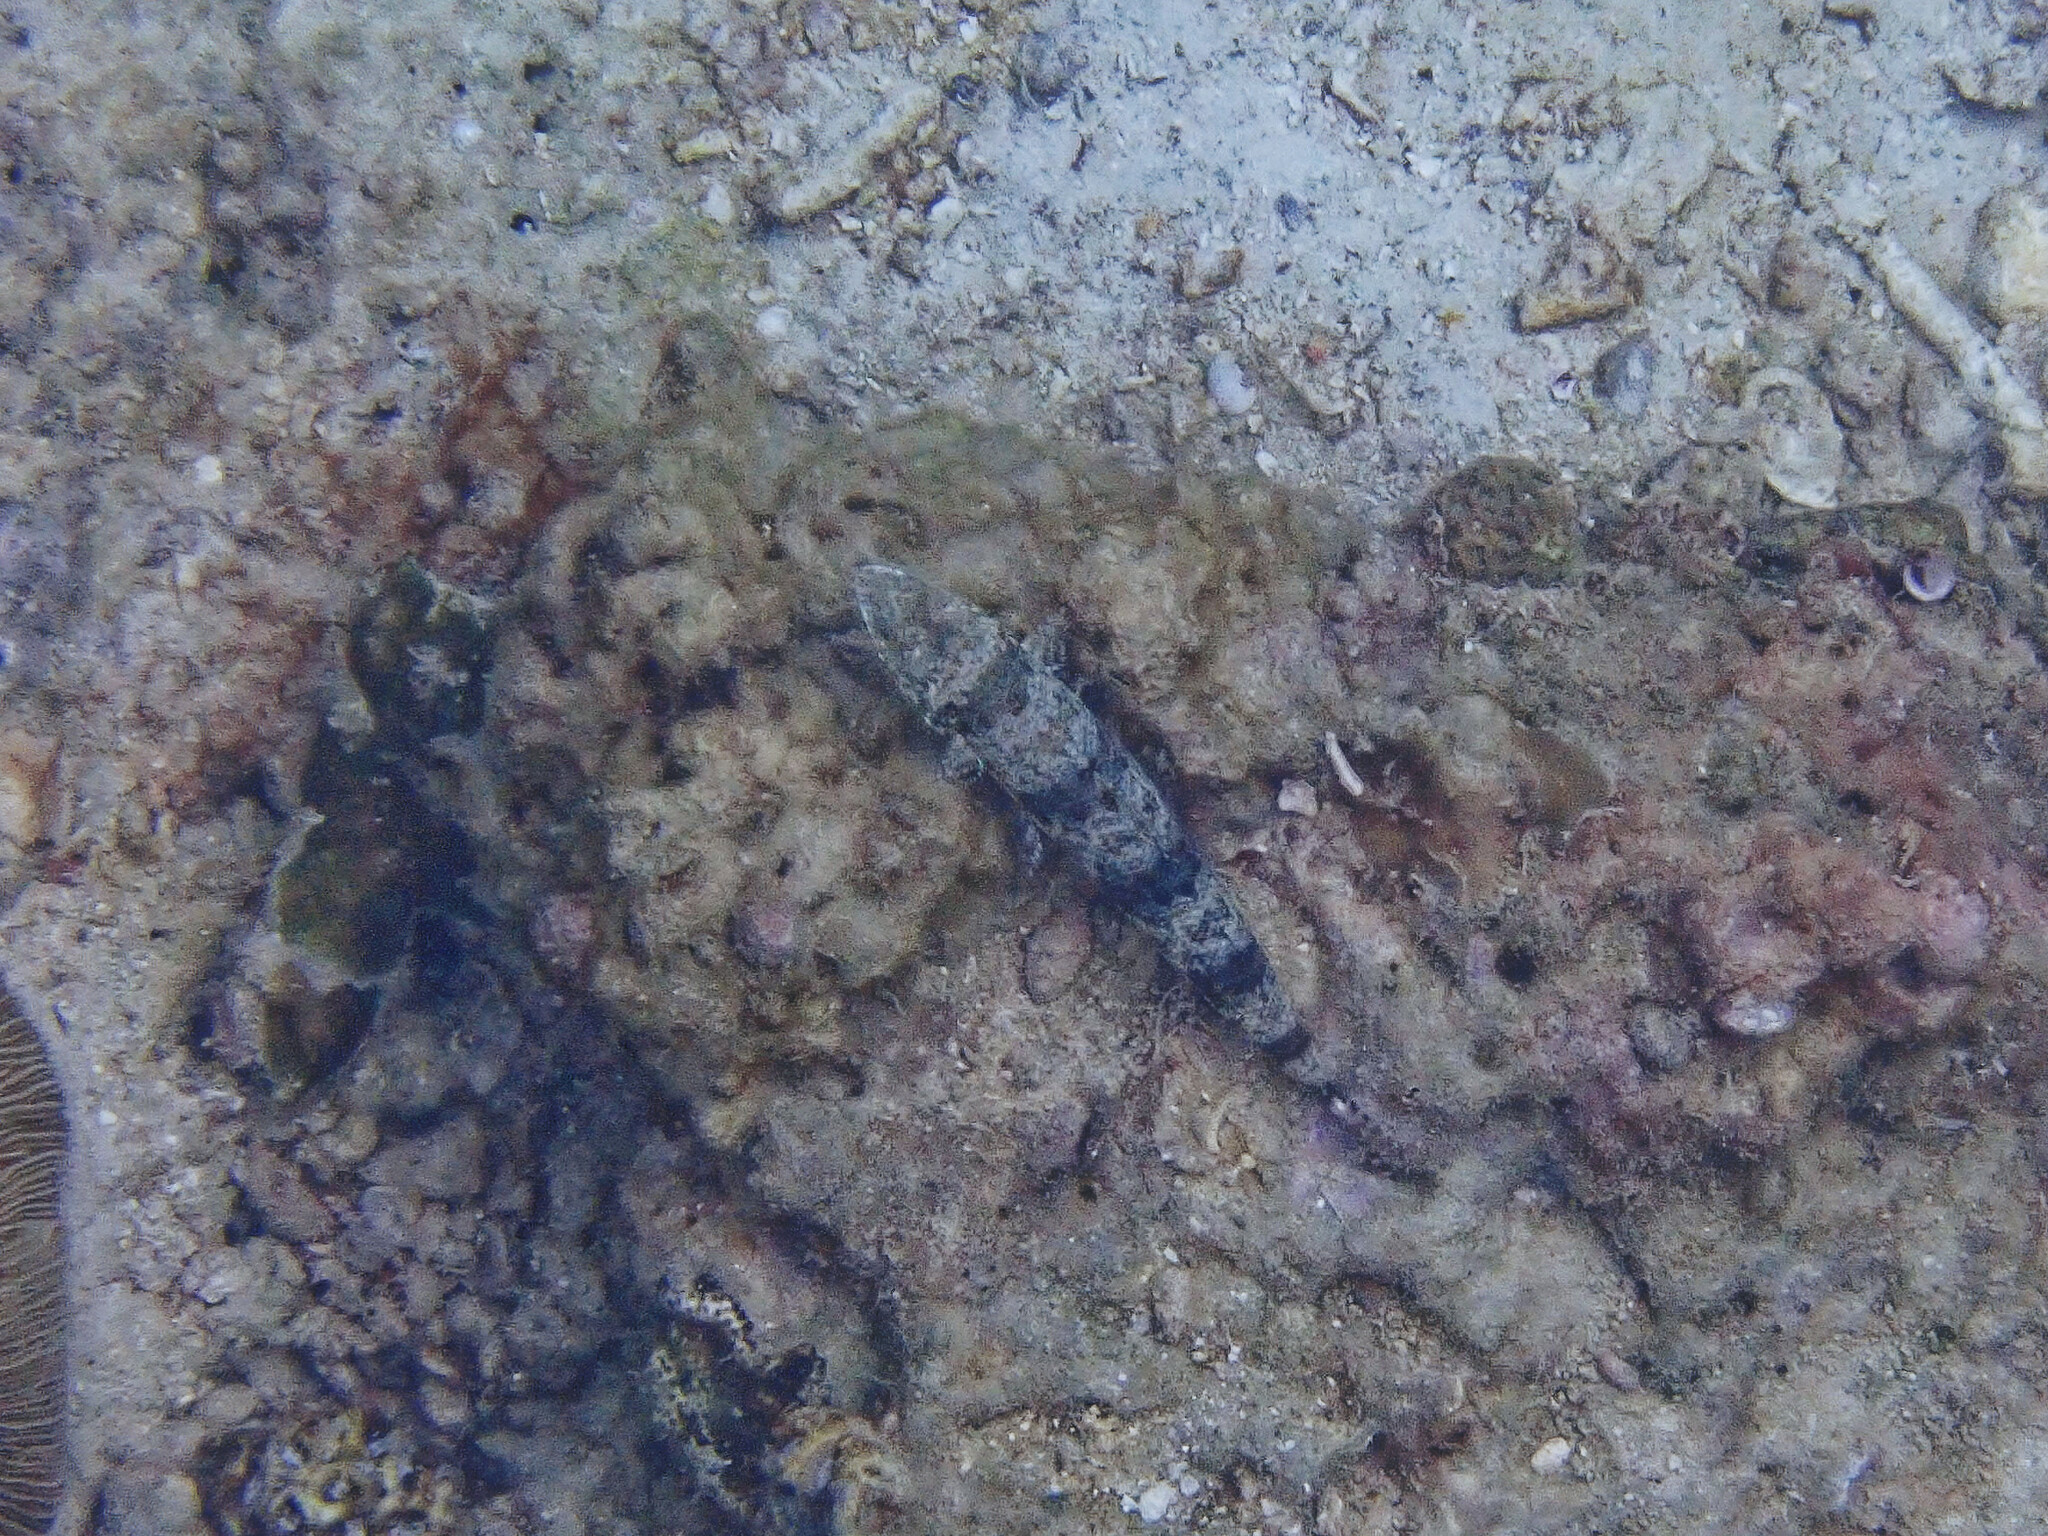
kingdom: Animalia
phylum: Chordata
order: Aulopiformes
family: Synodontidae
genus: Synodus
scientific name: Synodus variegatus
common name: Variegated lizardfish
